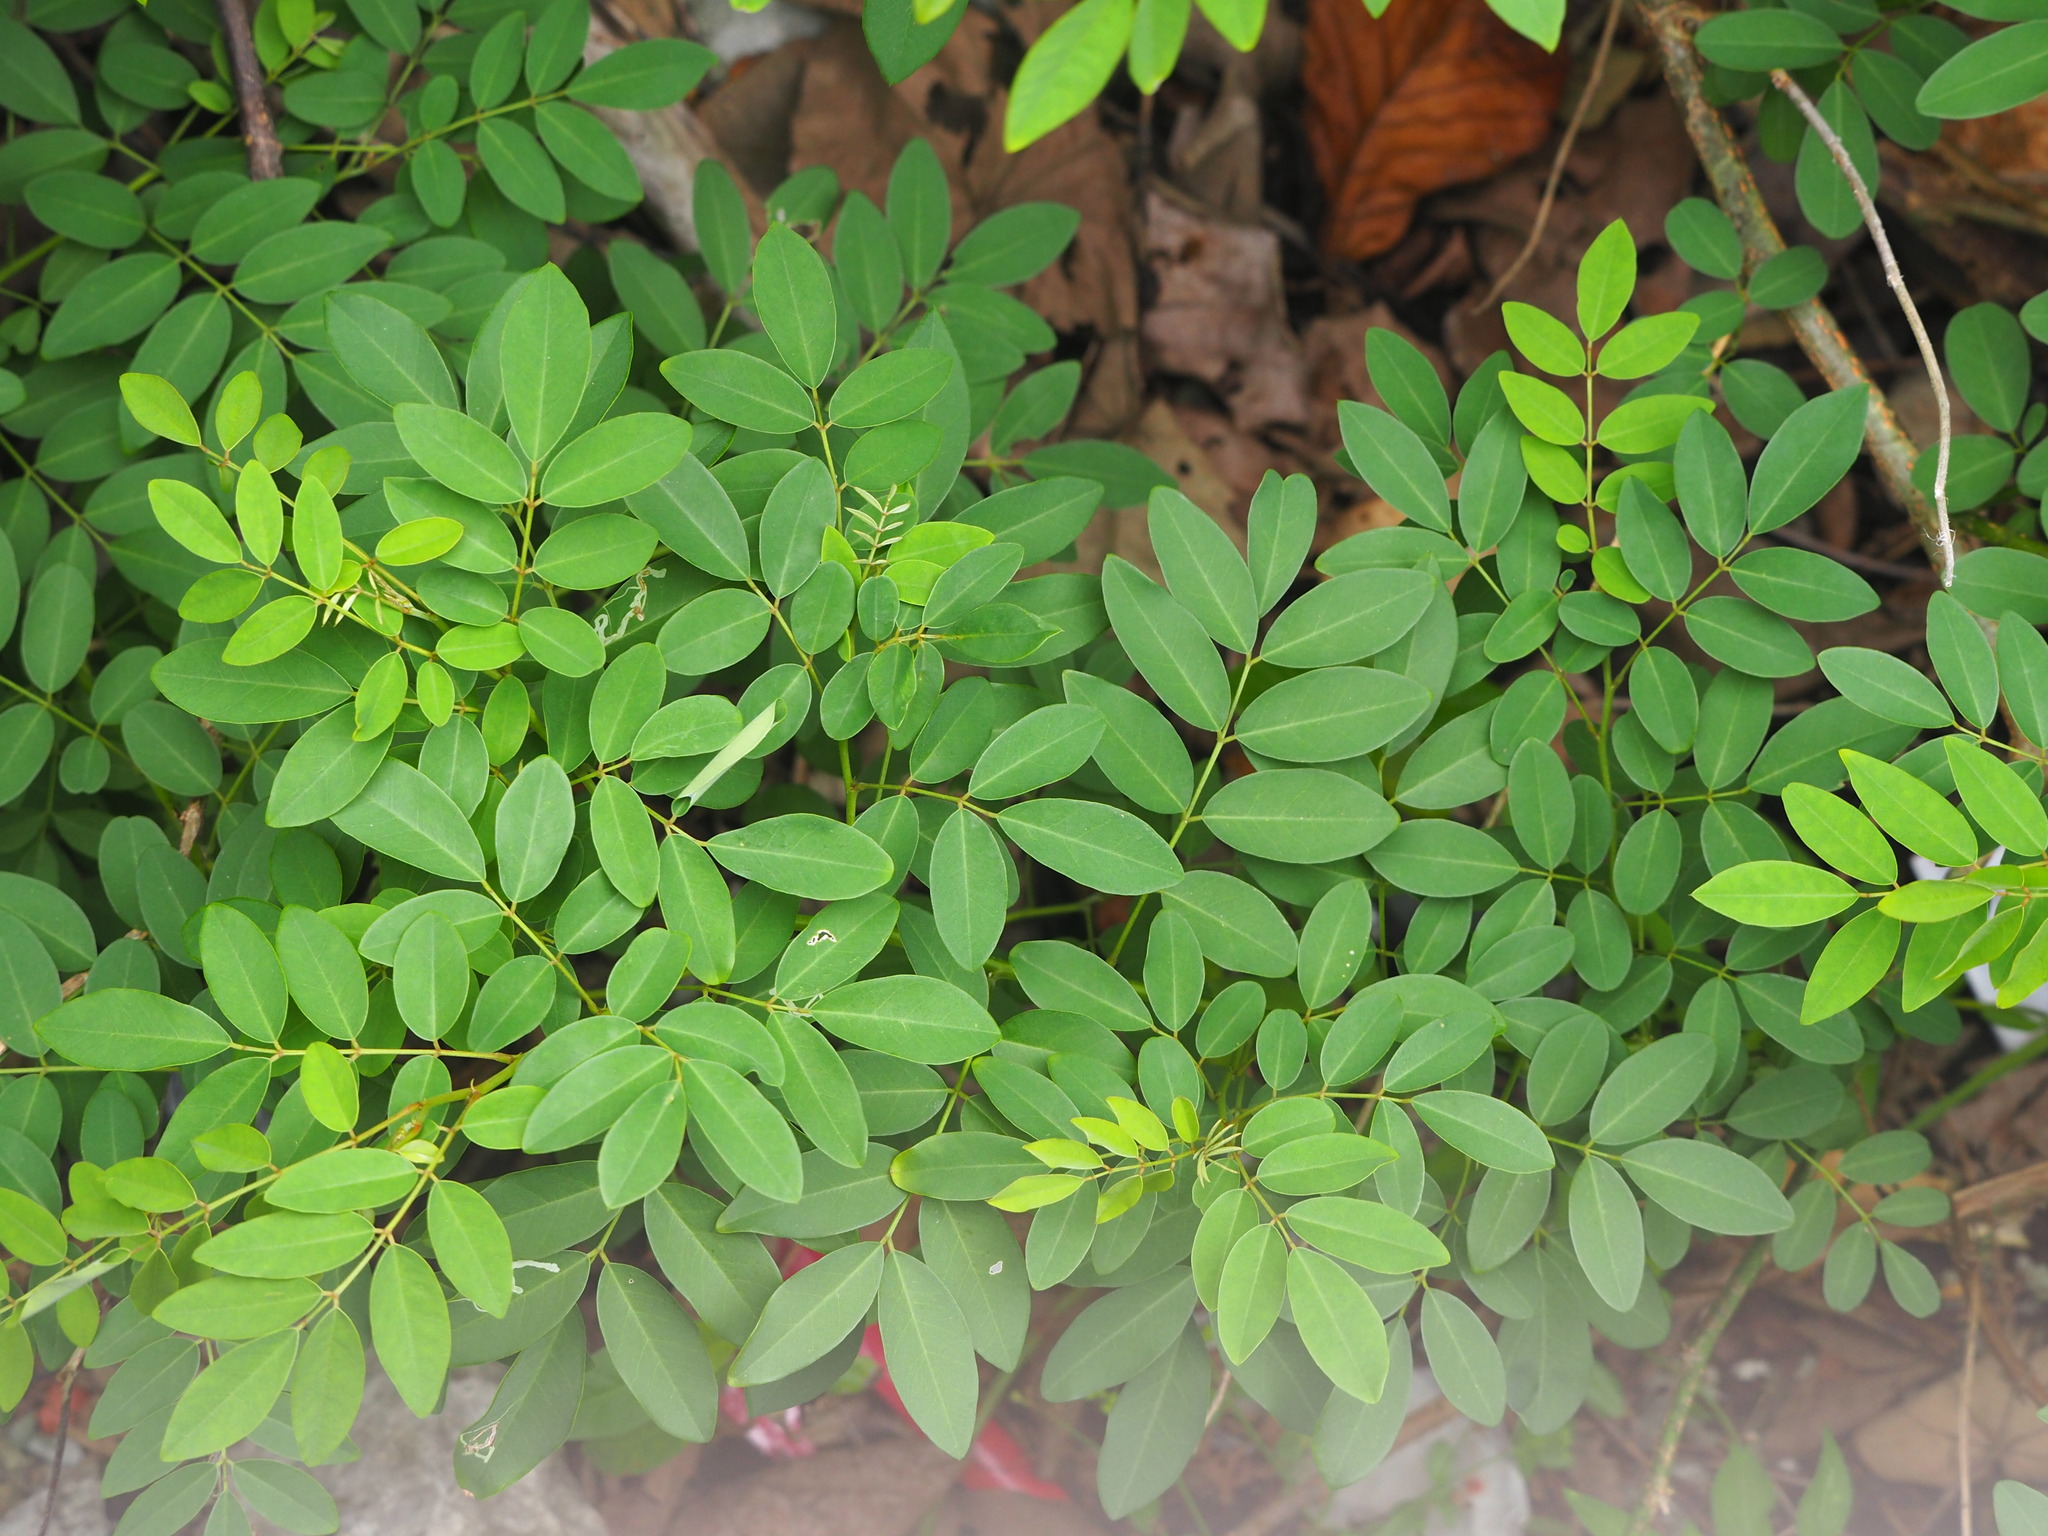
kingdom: Plantae
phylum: Tracheophyta
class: Magnoliopsida
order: Fabales
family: Fabaceae
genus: Derris
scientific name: Derris trifoliata
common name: Three-leaf derris
